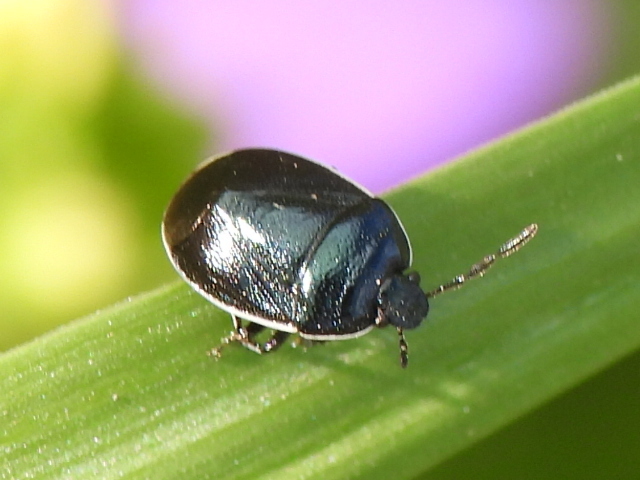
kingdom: Animalia
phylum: Arthropoda
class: Insecta
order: Hemiptera
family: Cydnidae
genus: Sehirus
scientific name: Sehirus cinctus
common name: White-margined burrower bug
